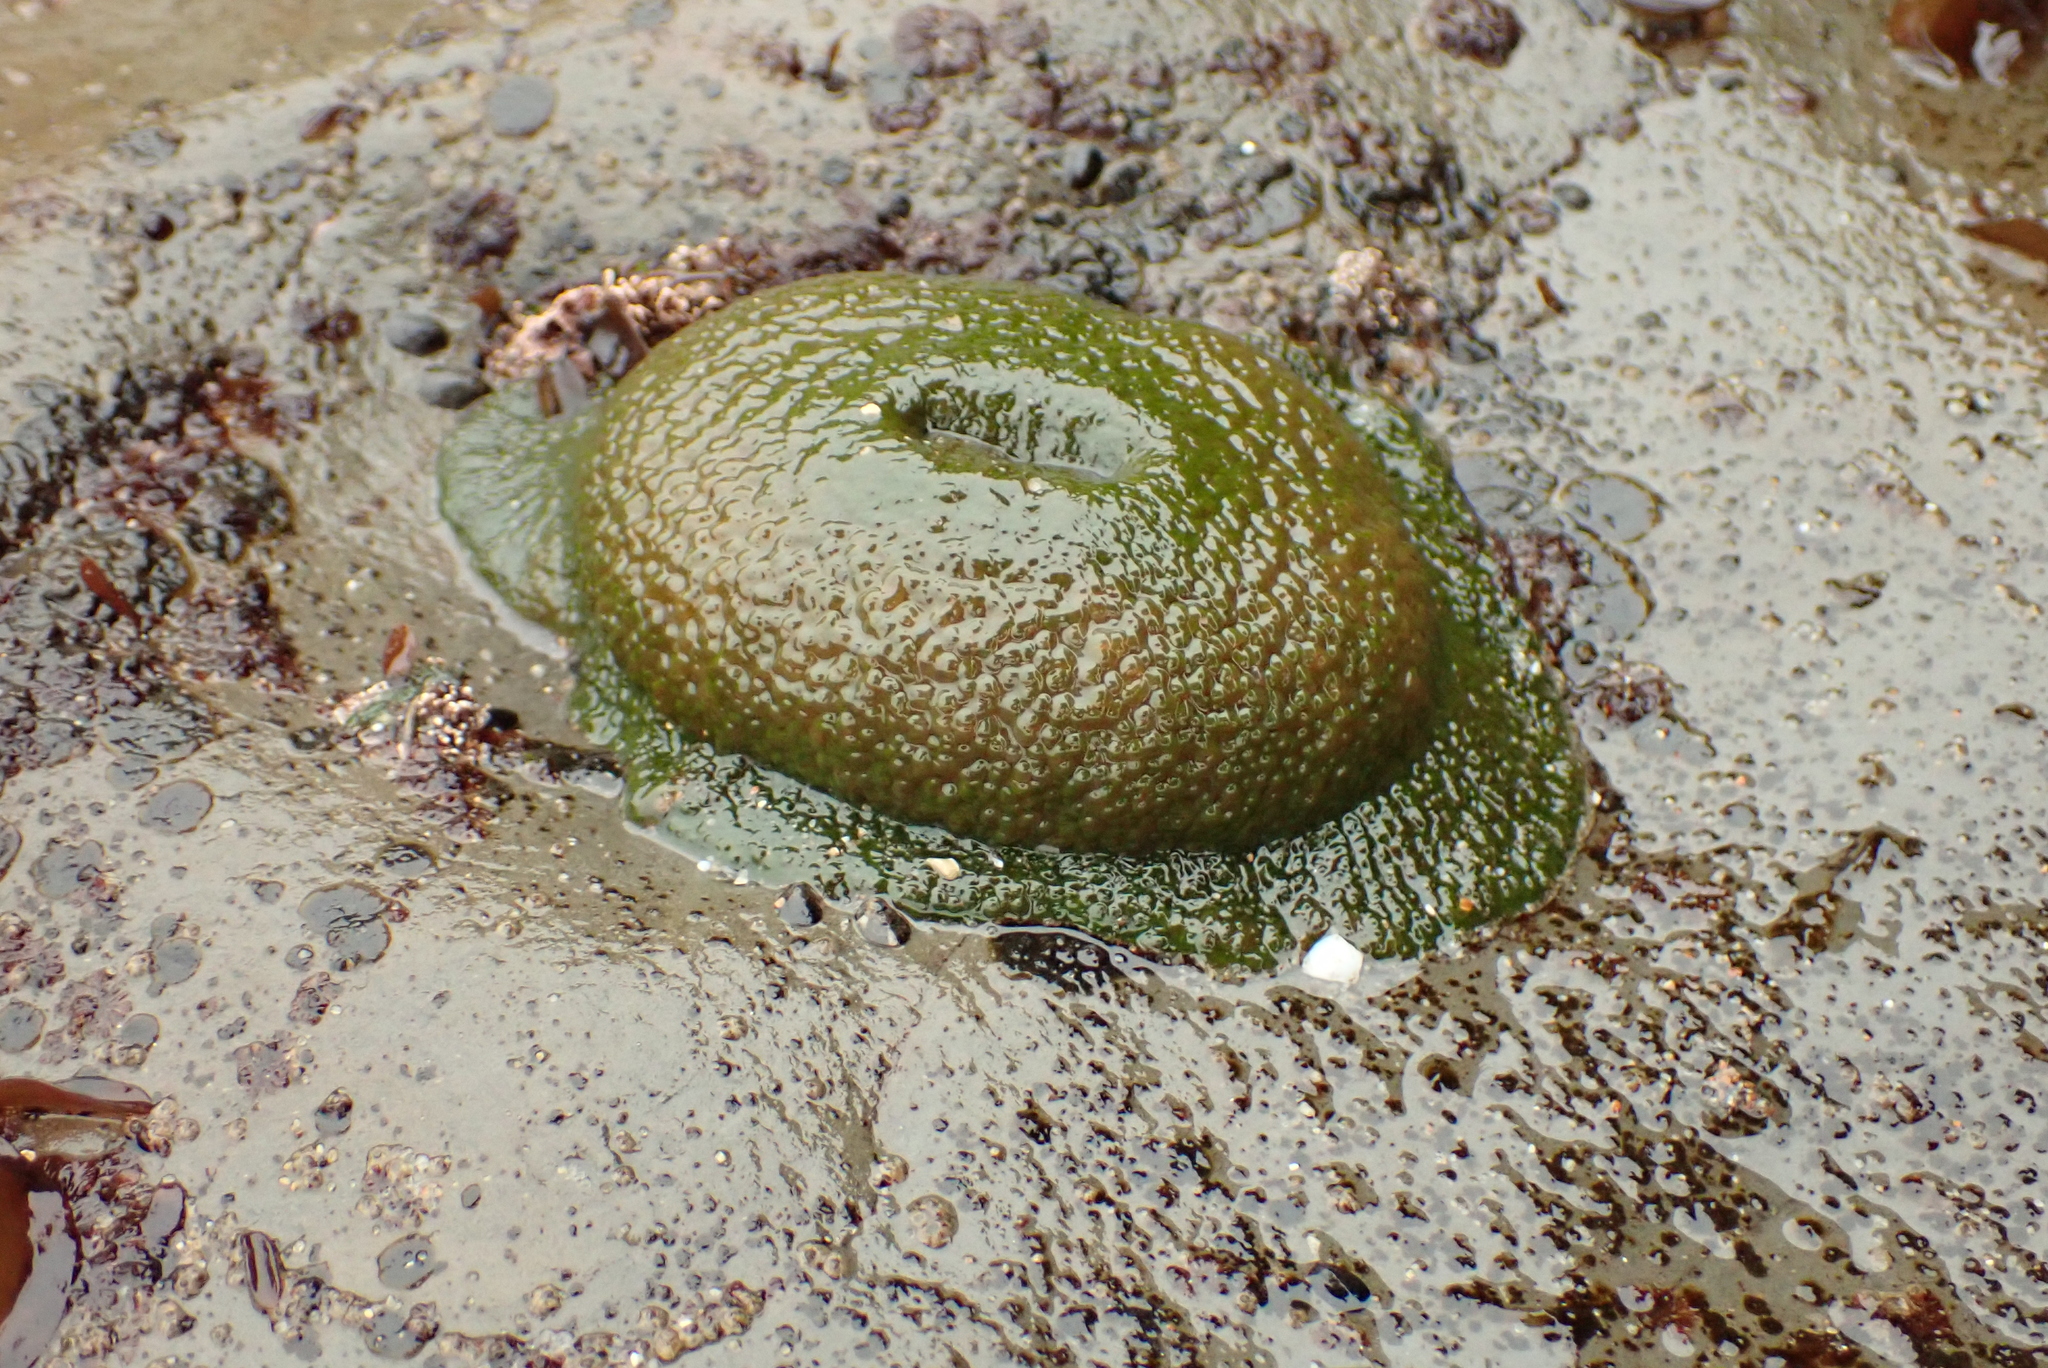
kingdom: Animalia
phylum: Cnidaria
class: Anthozoa
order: Actiniaria
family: Actiniidae
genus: Anthopleura
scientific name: Anthopleura xanthogrammica
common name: Giant green anemone
